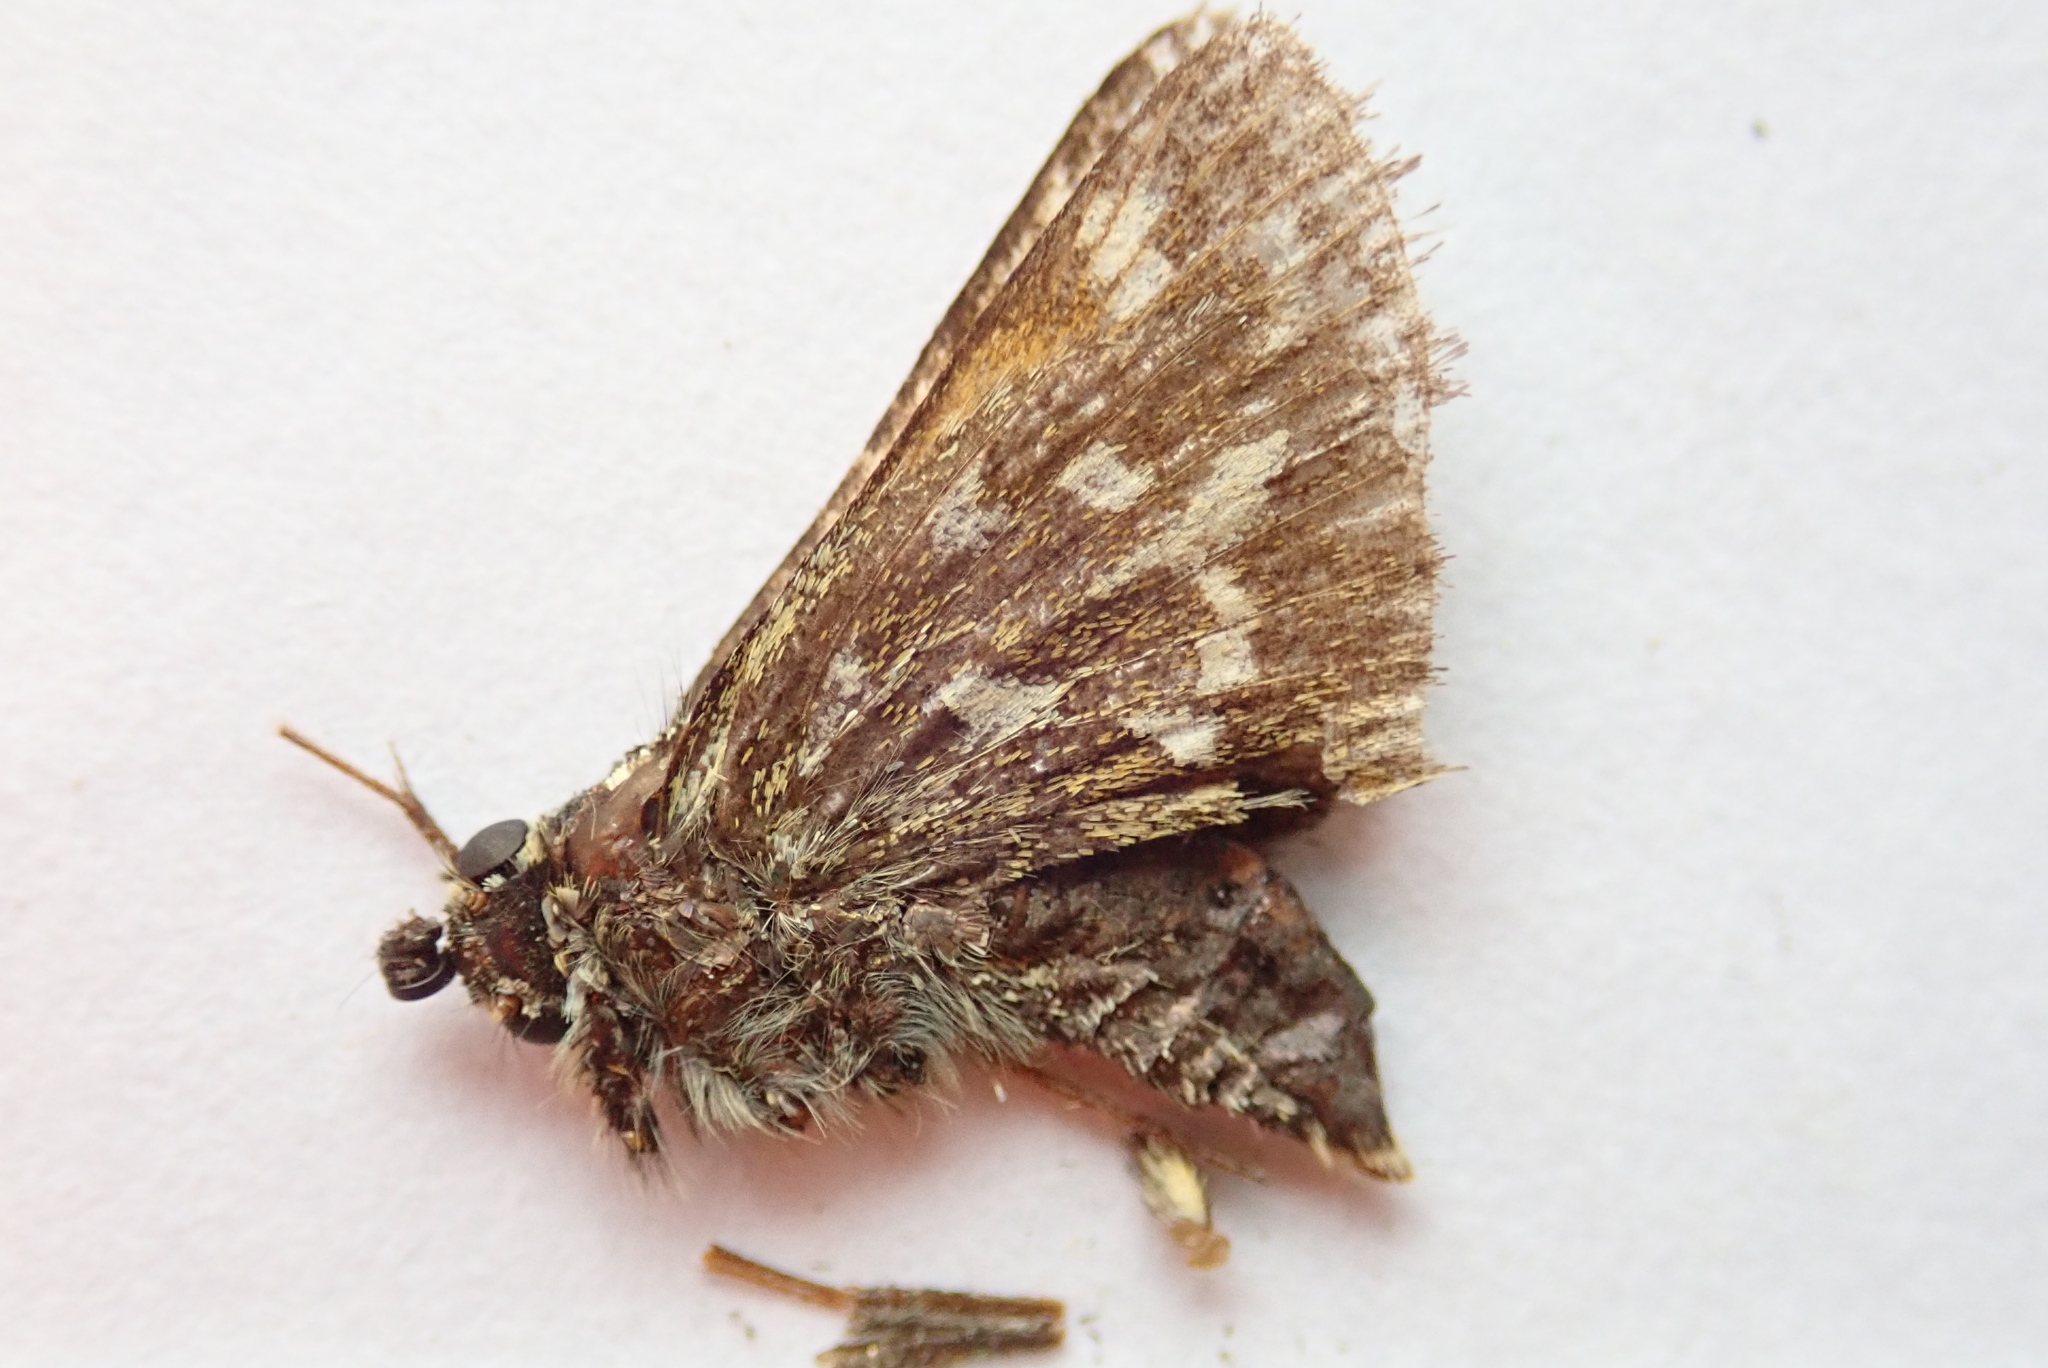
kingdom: Animalia
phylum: Arthropoda
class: Insecta
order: Lepidoptera
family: Hesperiidae
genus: Polites
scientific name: Polites sabuleti
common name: Sandhill skipper
